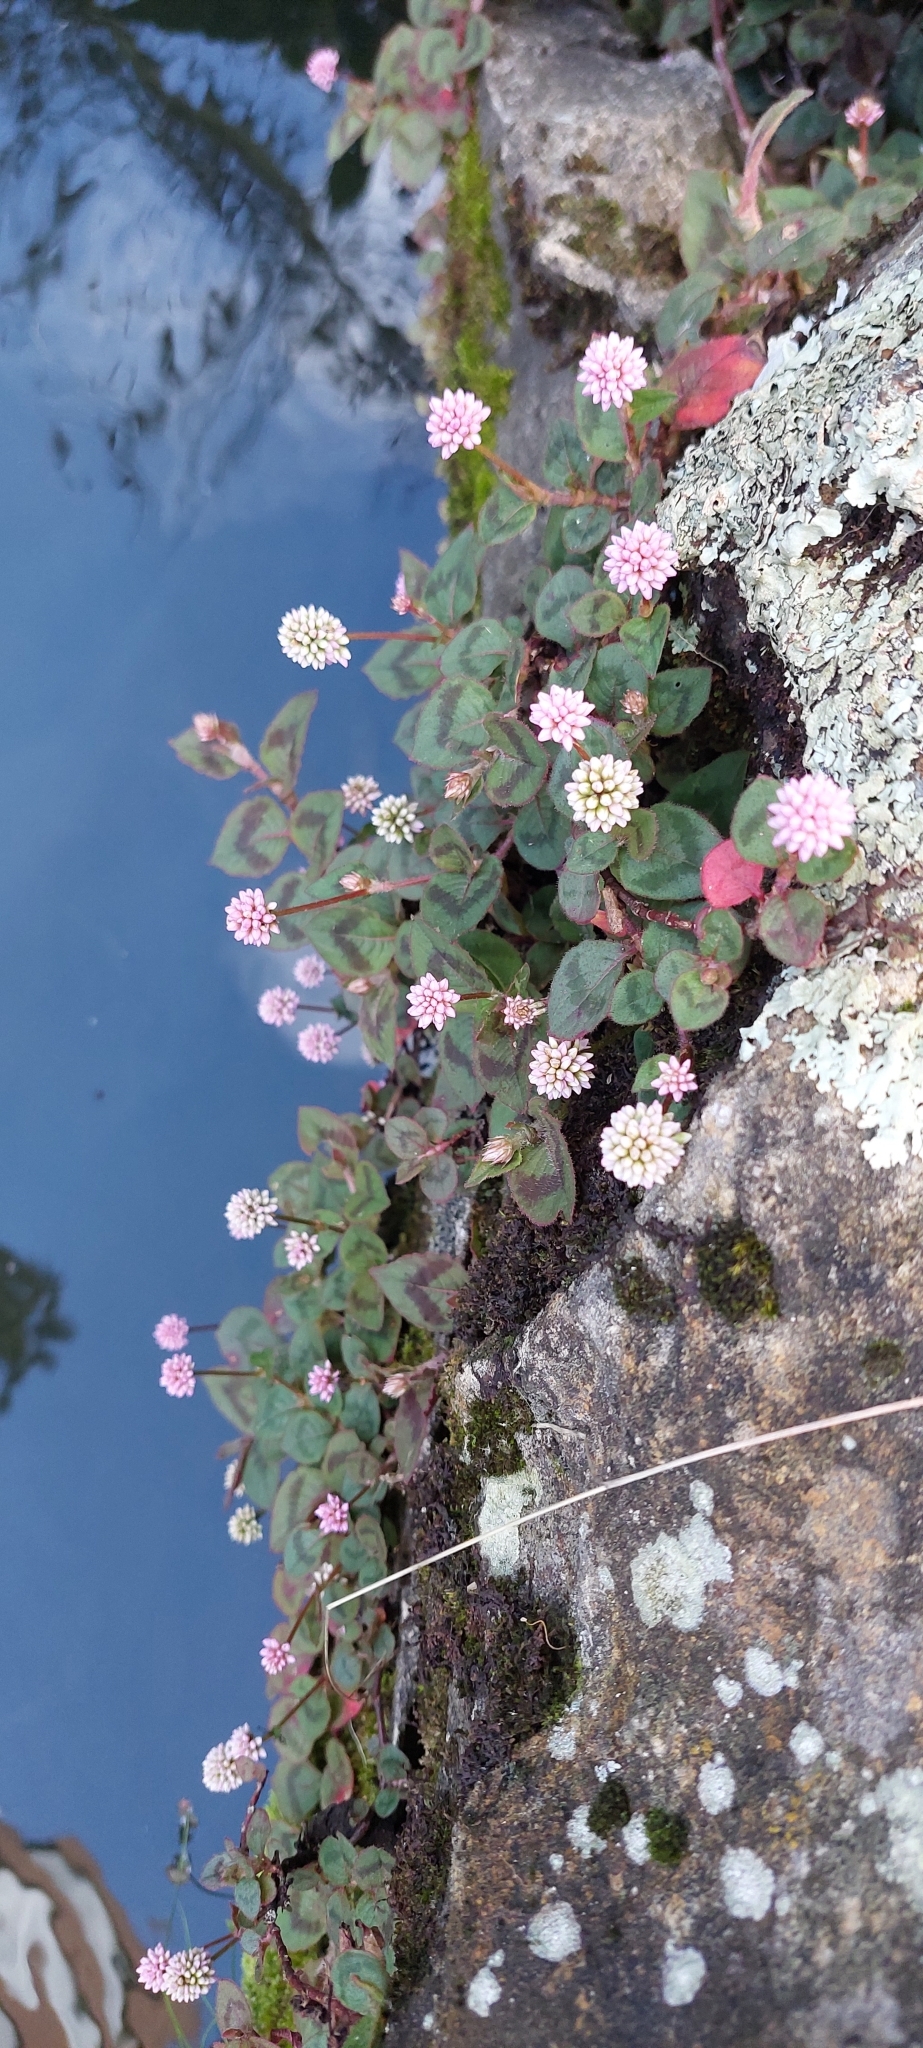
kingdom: Plantae
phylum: Tracheophyta
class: Magnoliopsida
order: Caryophyllales
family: Polygonaceae
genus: Persicaria
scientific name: Persicaria capitata
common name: Pinkhead smartweed
